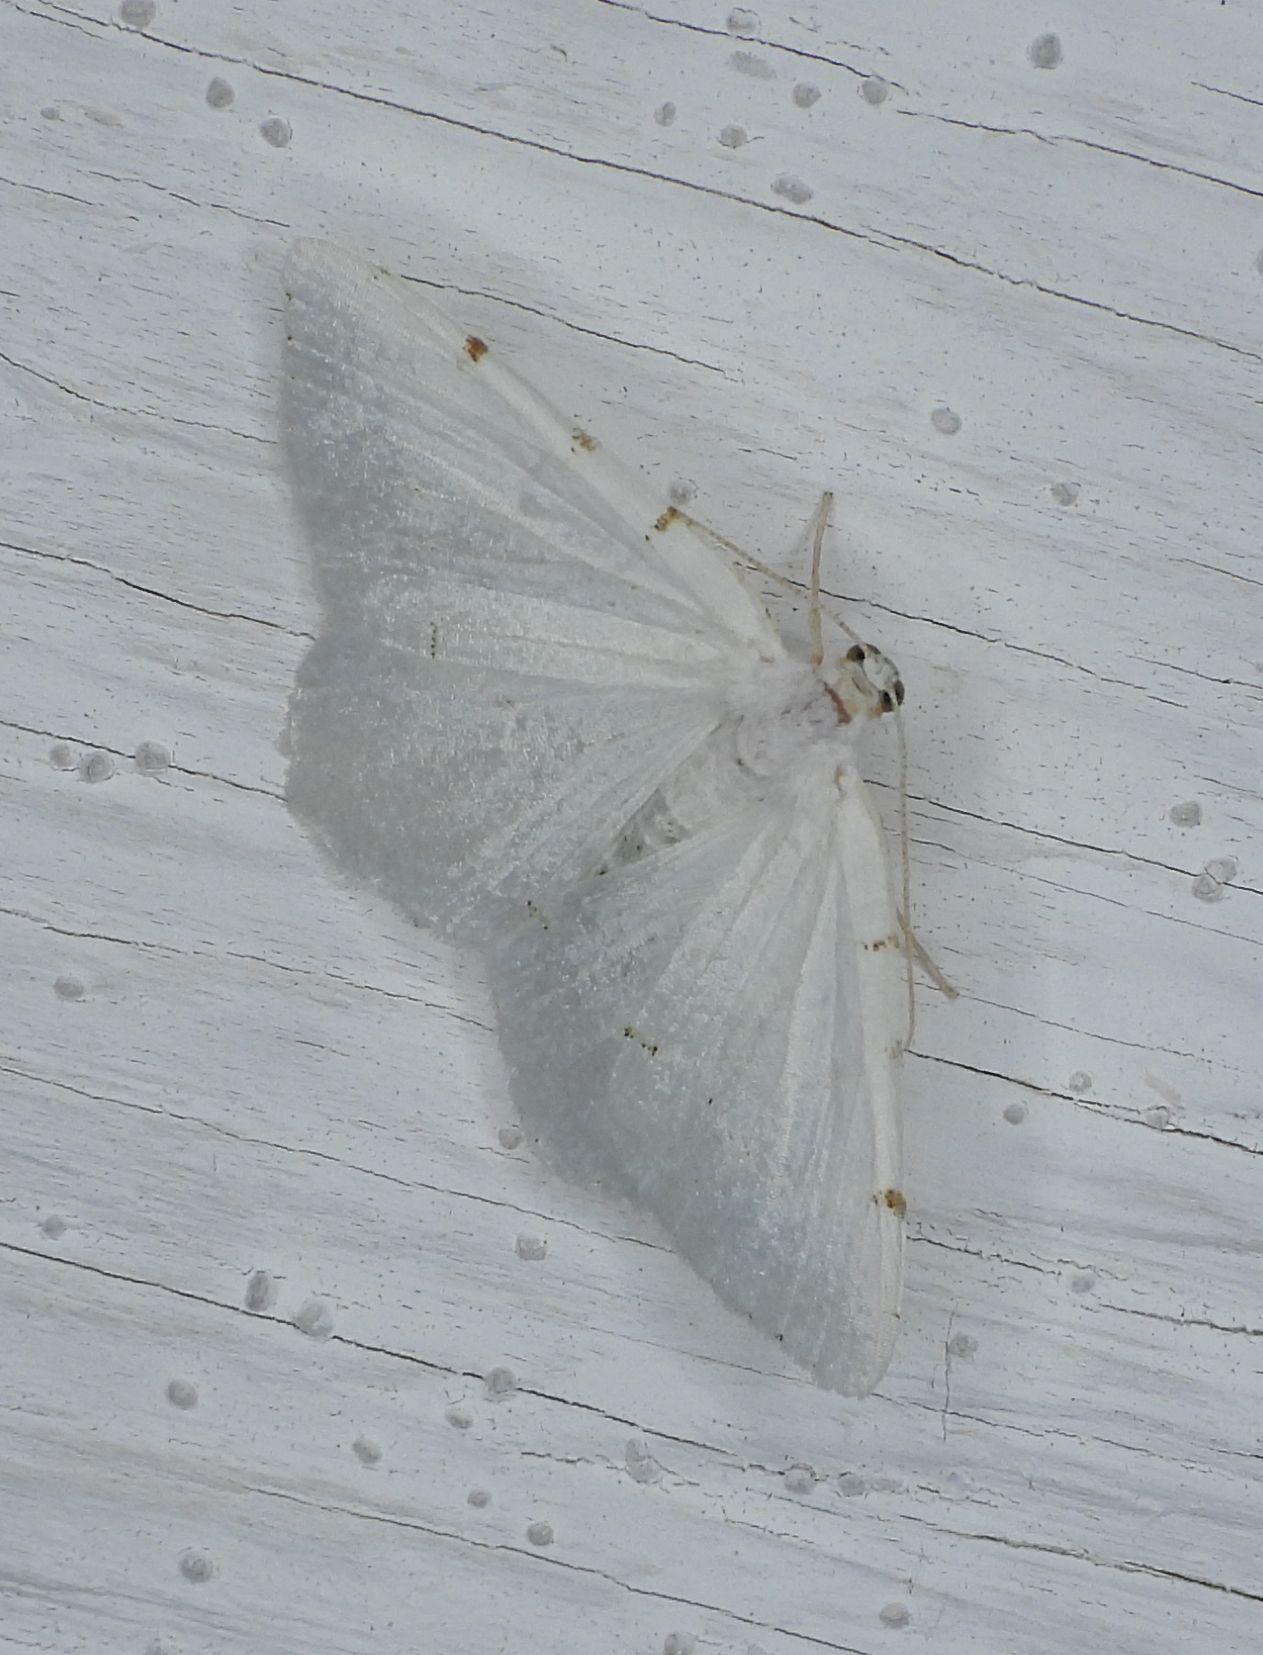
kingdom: Animalia
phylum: Arthropoda
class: Insecta
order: Lepidoptera
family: Geometridae
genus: Macaria
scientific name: Macaria pustularia
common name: Lesser maple spanworm moth
